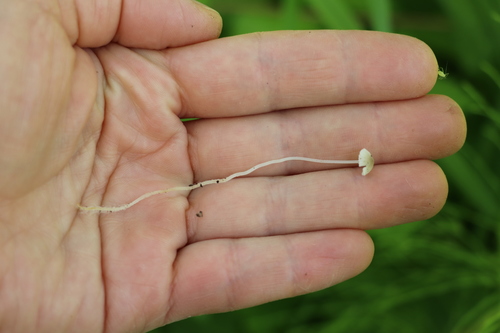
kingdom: Fungi
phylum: Basidiomycota
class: Agaricomycetes
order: Agaricales
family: Mycenaceae
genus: Mycena
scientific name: Mycena
